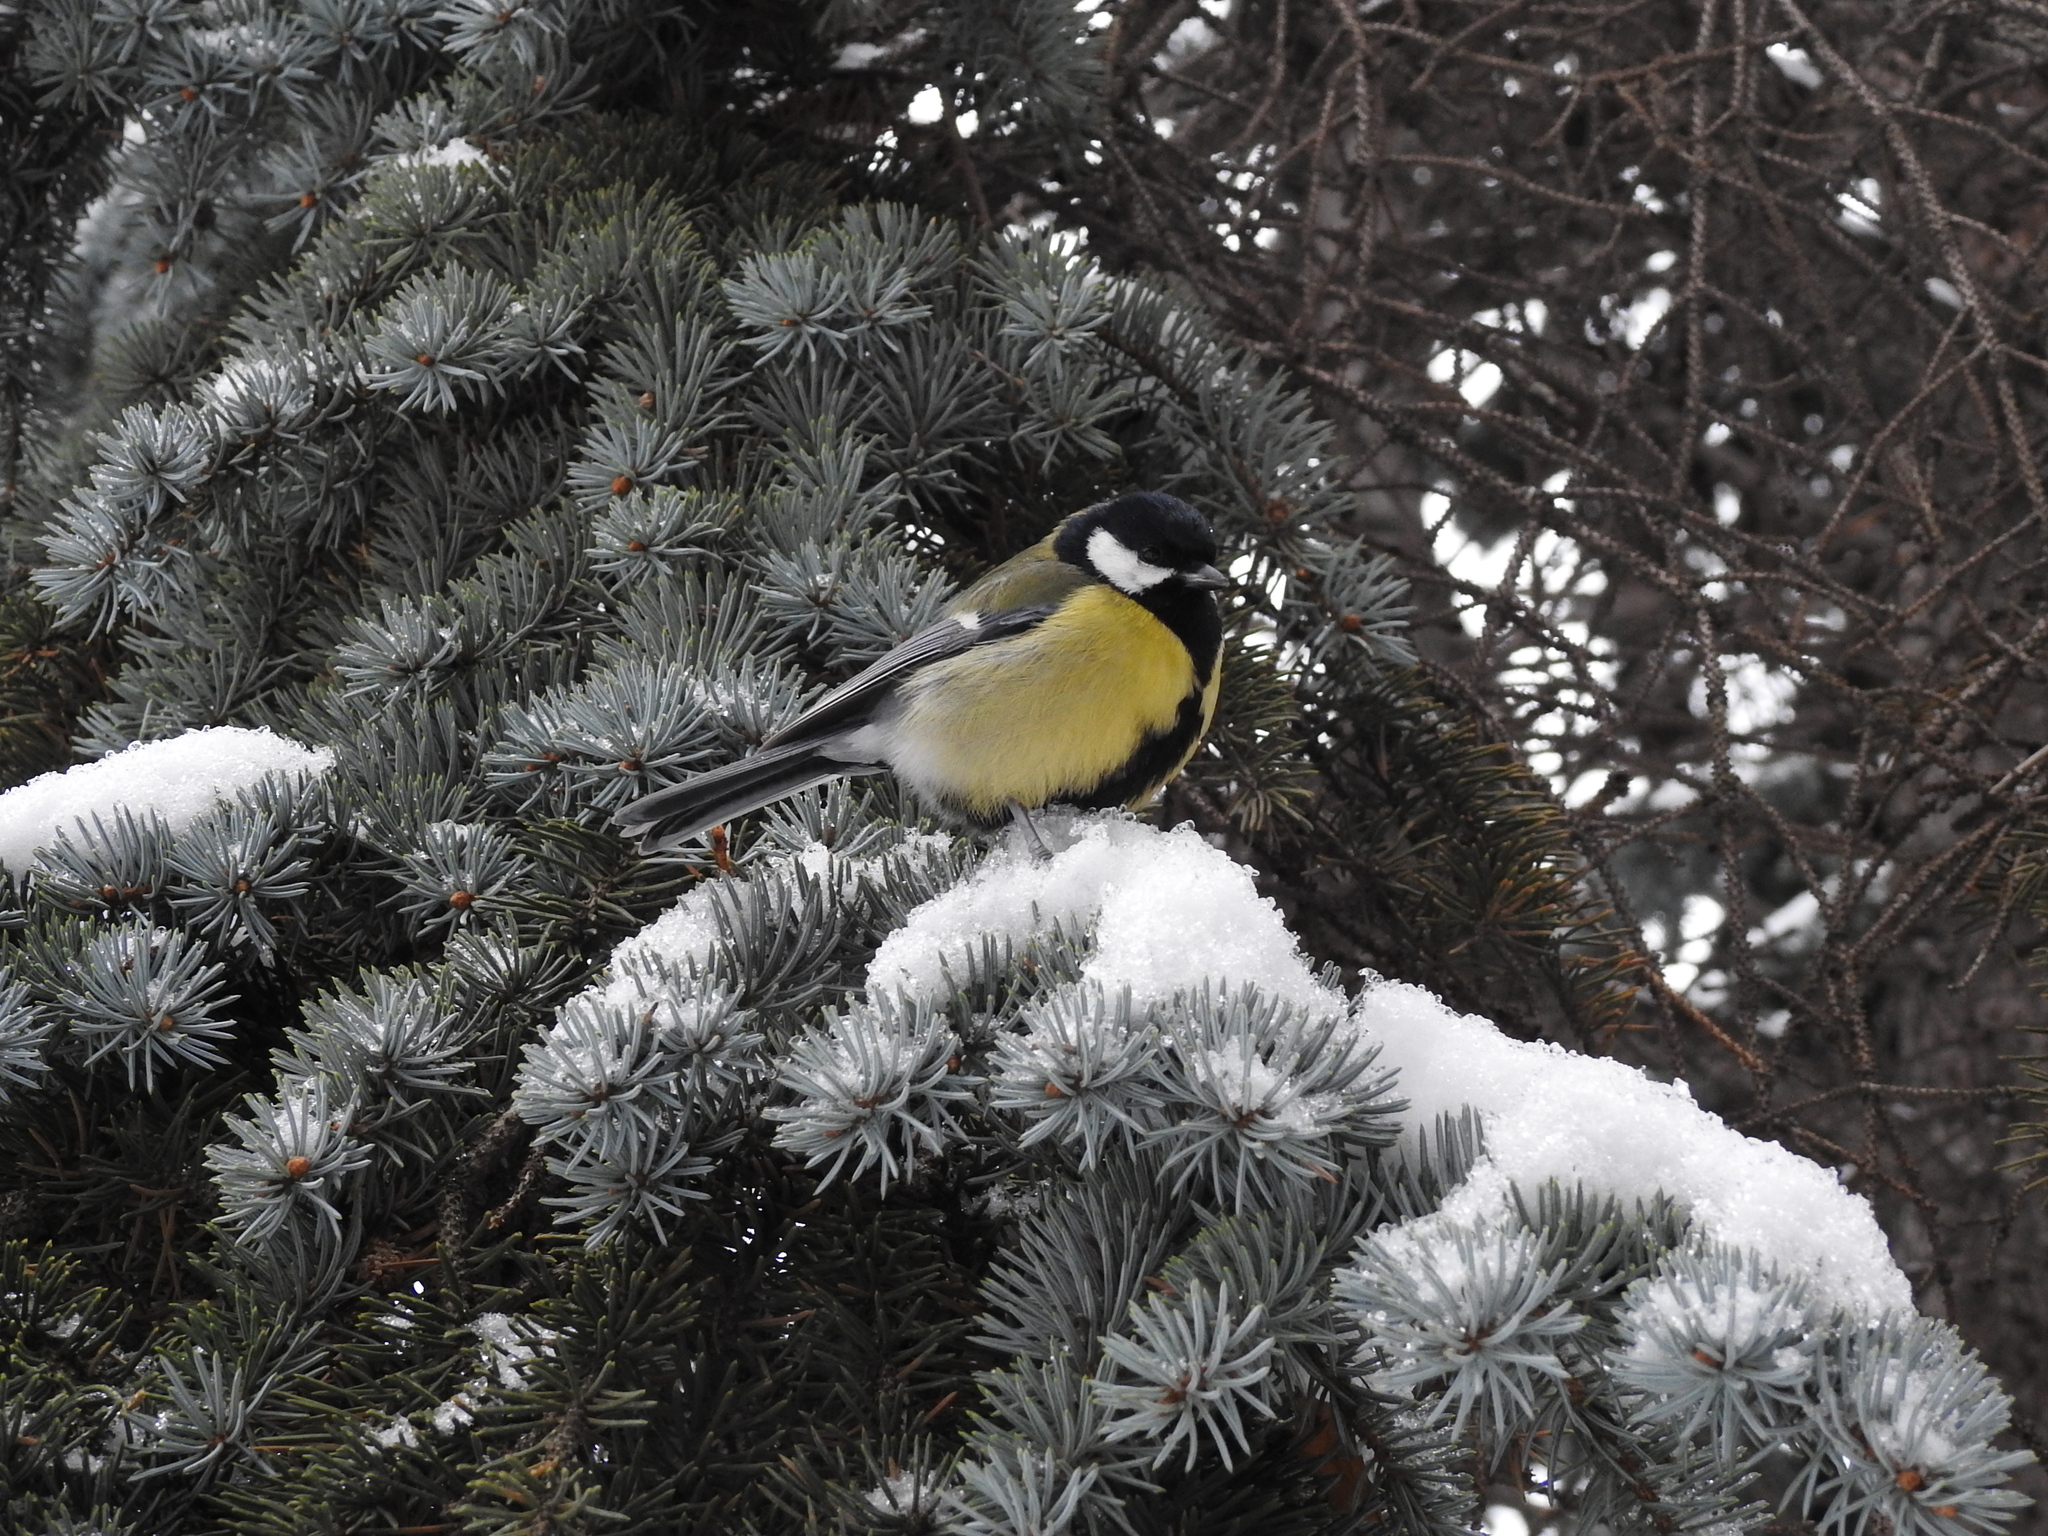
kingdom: Animalia
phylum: Chordata
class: Aves
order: Passeriformes
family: Paridae
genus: Parus
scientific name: Parus major
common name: Great tit
